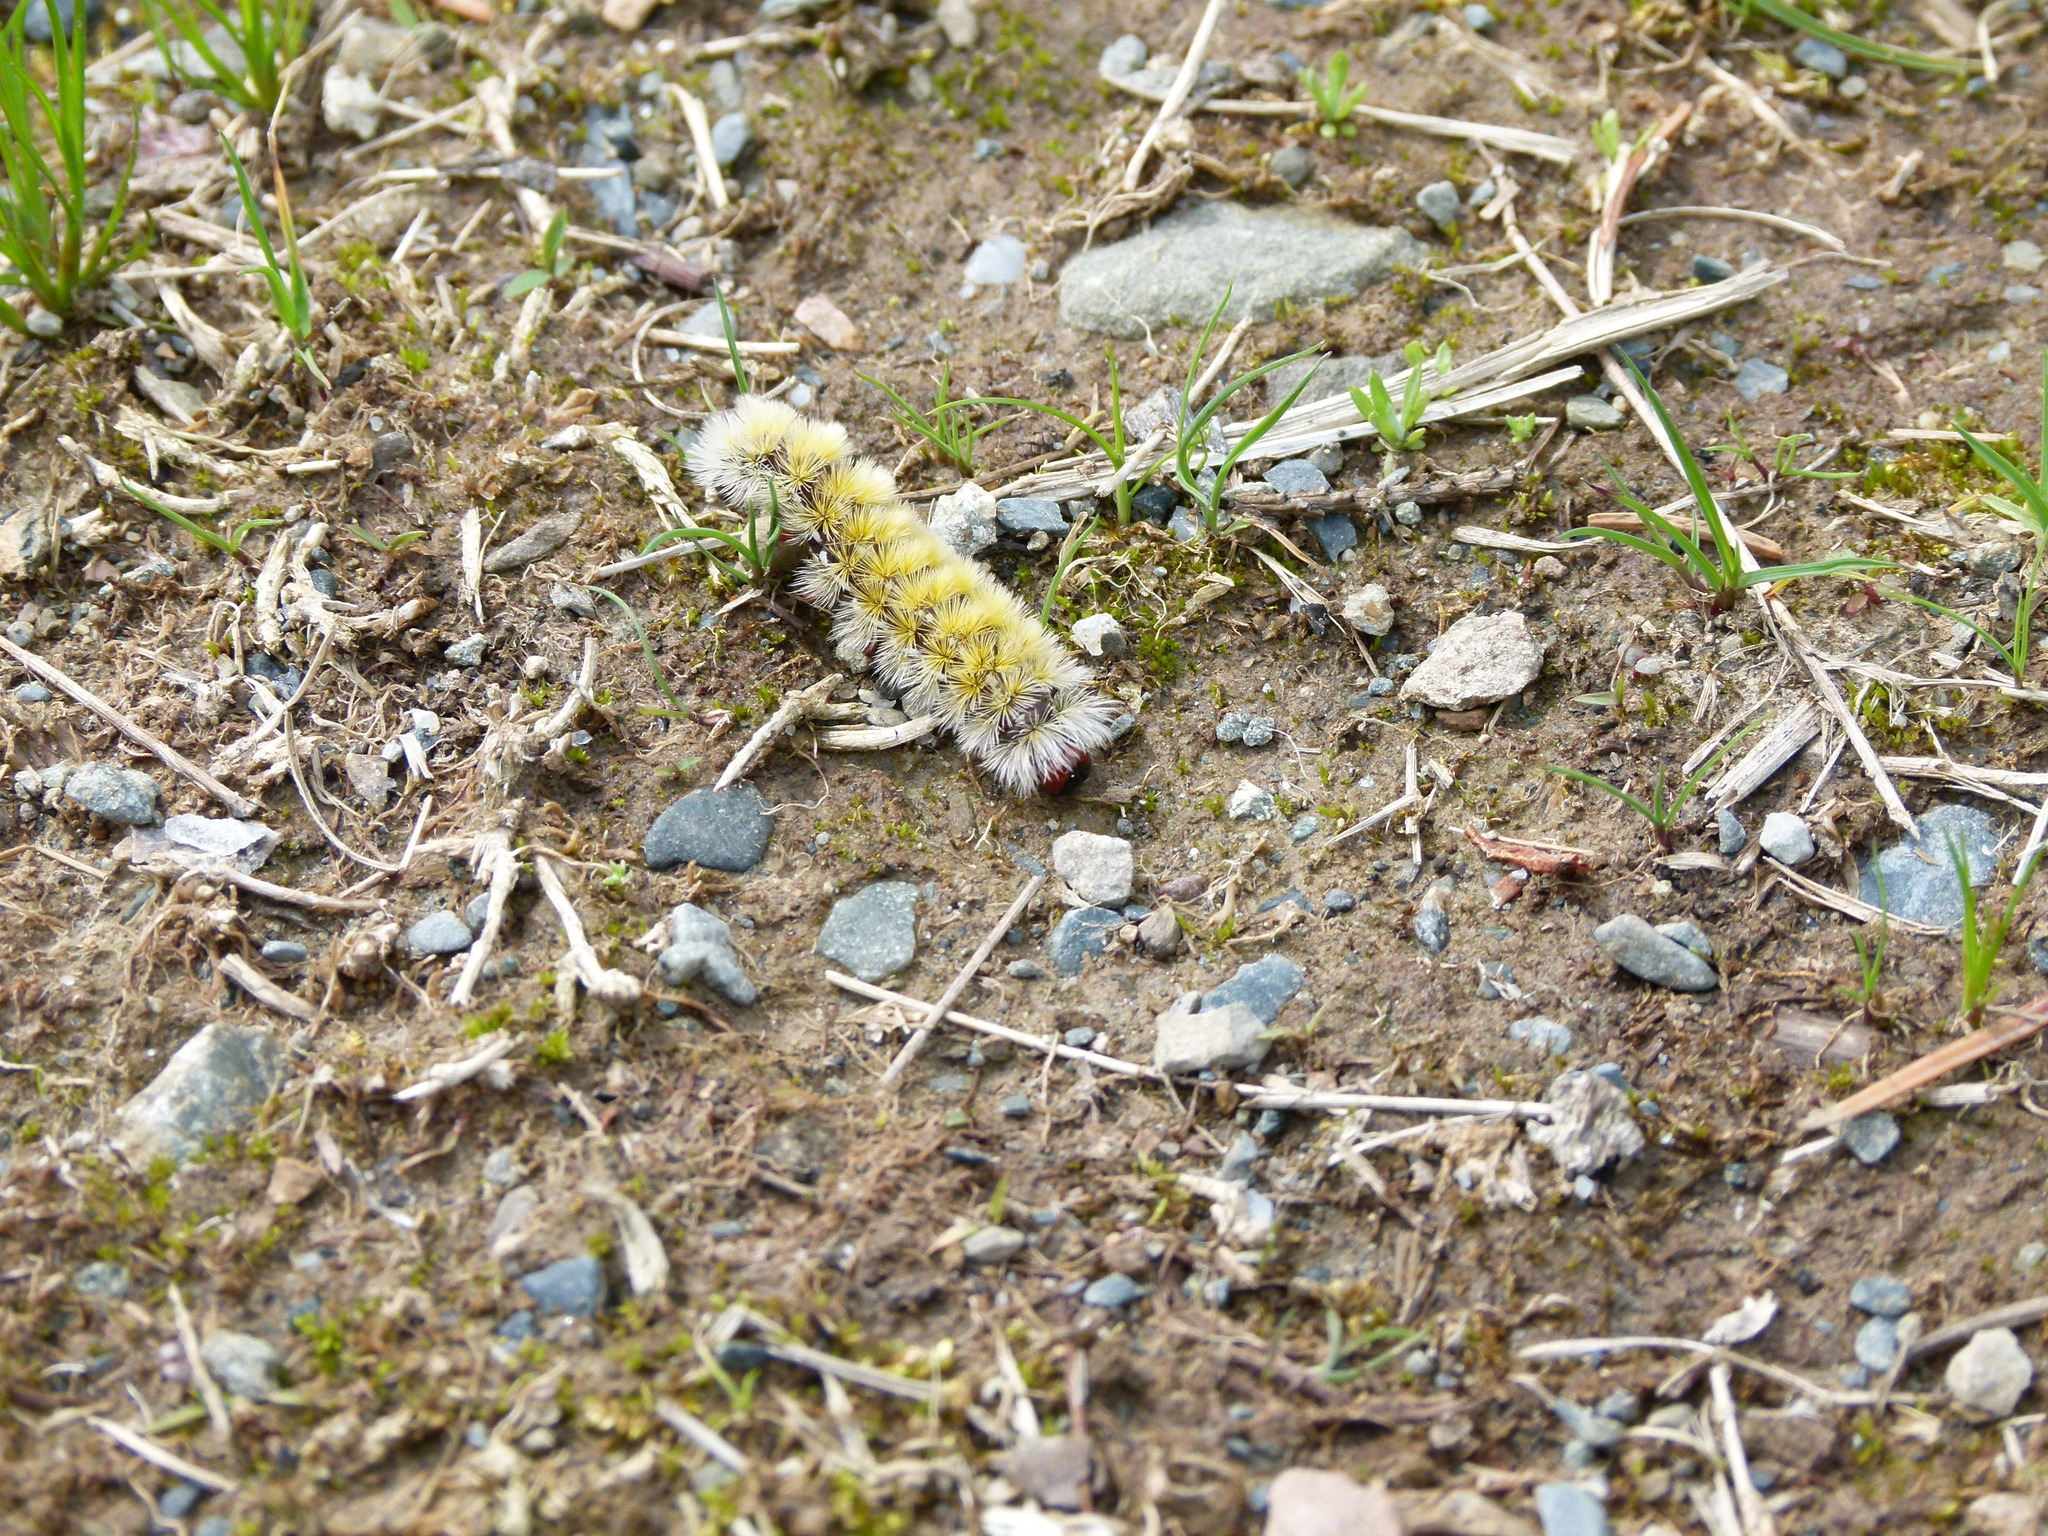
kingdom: Animalia
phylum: Arthropoda
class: Insecta
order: Lepidoptera
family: Erebidae
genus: Ctenucha
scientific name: Ctenucha virginica
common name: Virginia ctenucha moth
